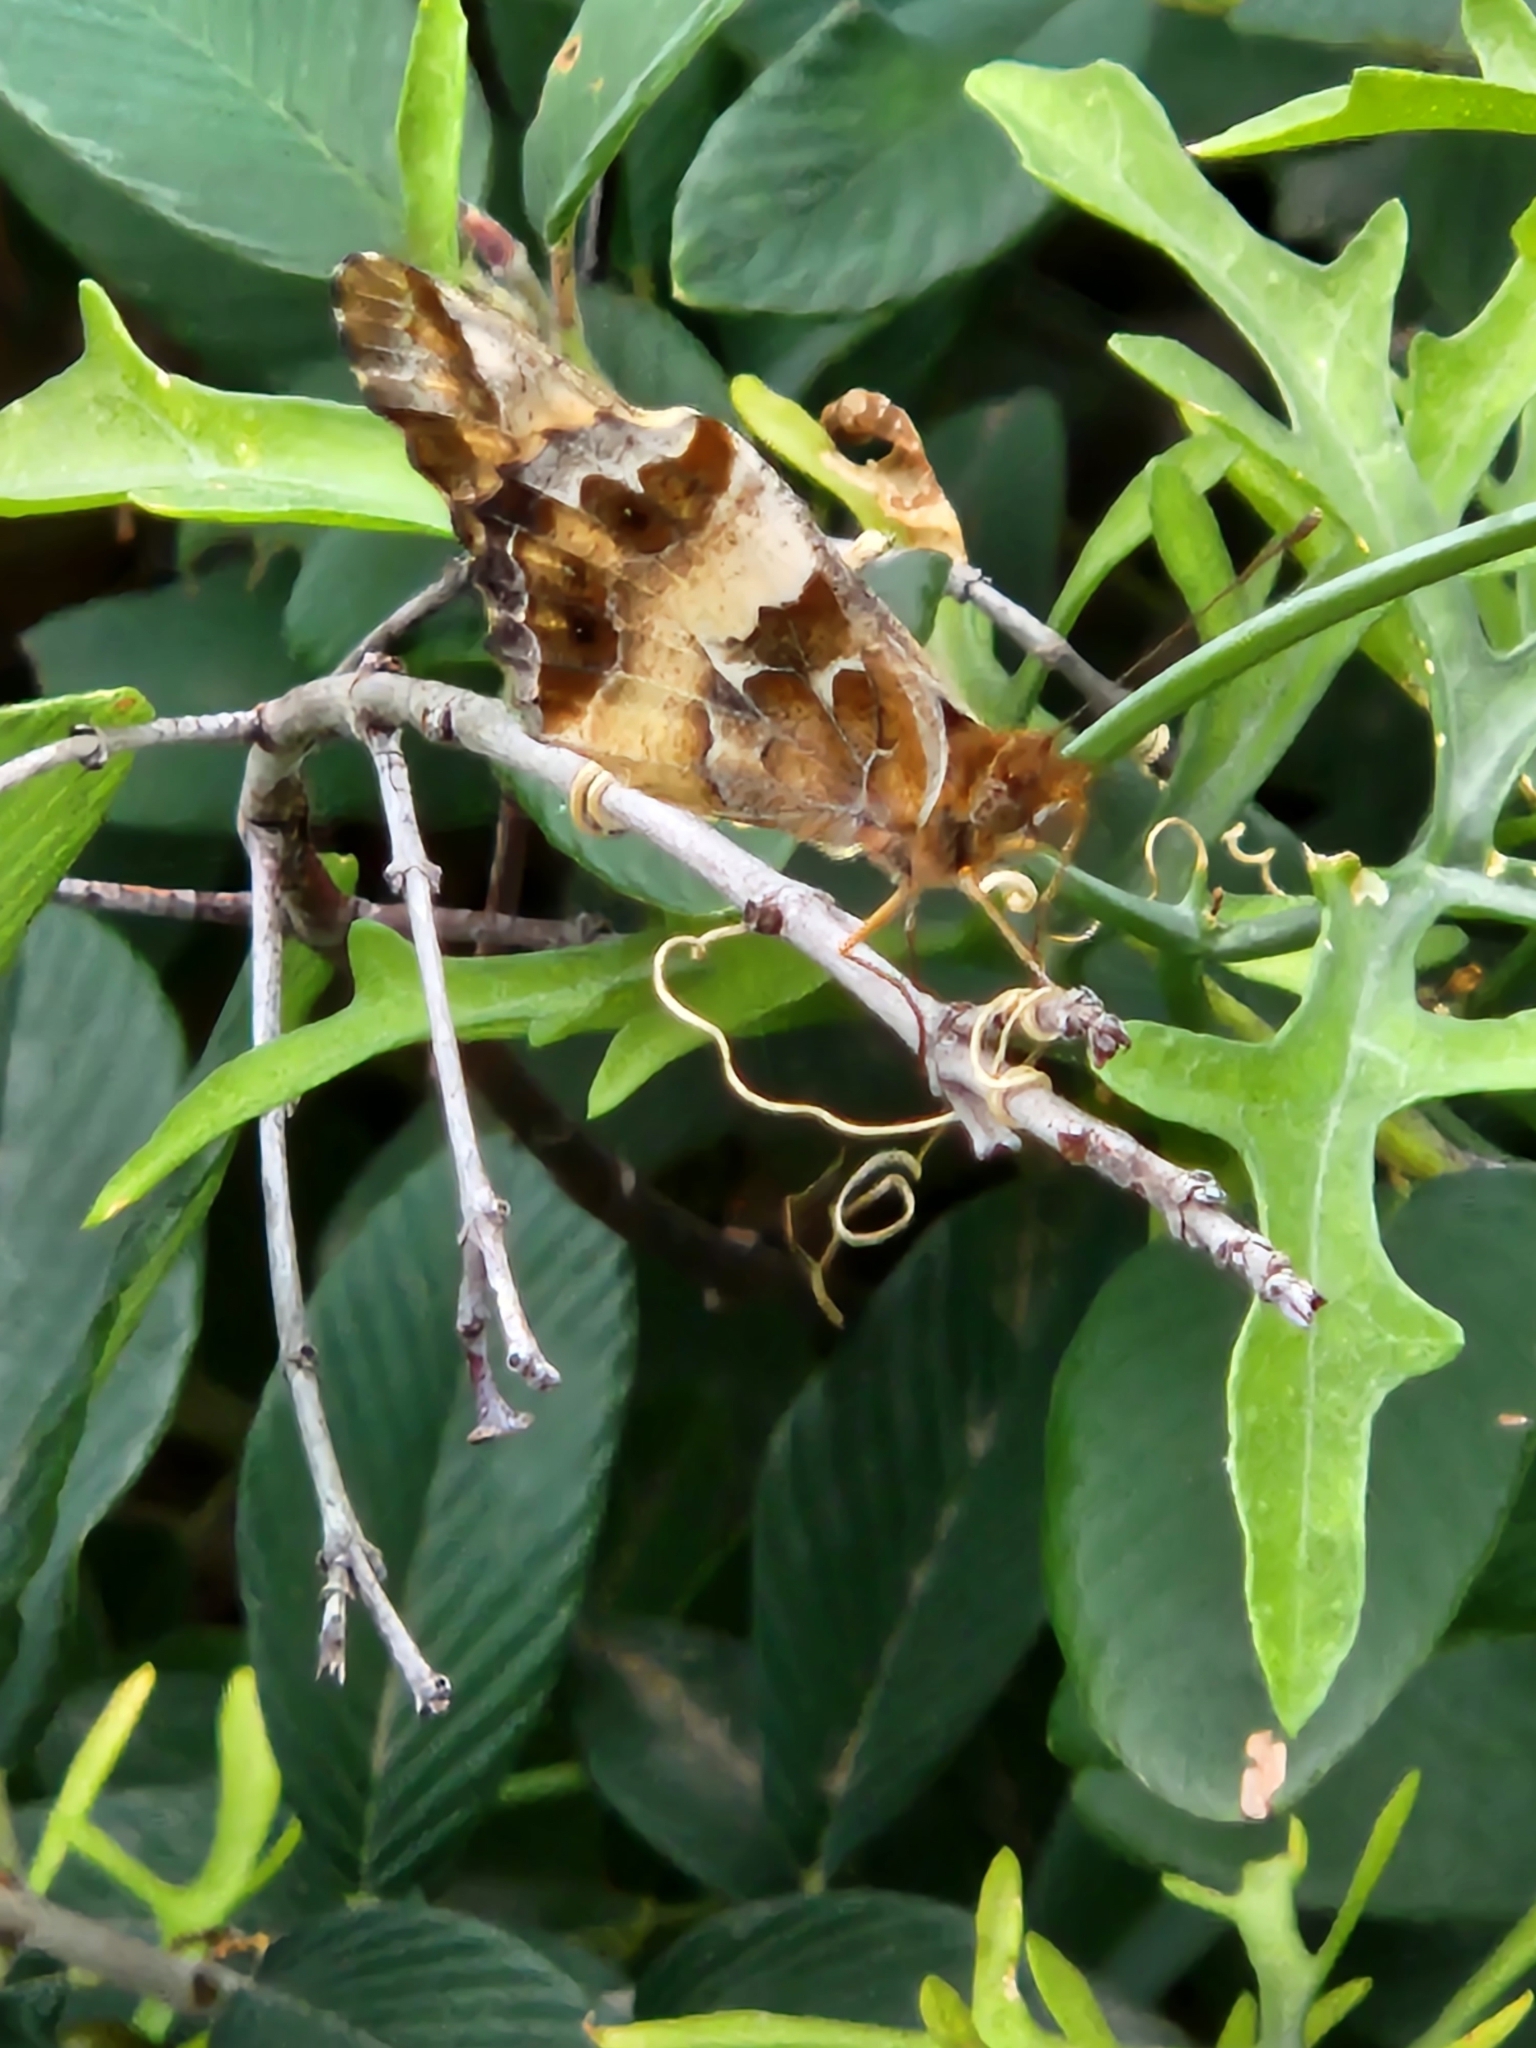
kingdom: Animalia
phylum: Arthropoda
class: Insecta
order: Lepidoptera
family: Nymphalidae
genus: Euptoieta
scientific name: Euptoieta claudia
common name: Variegated fritillary
